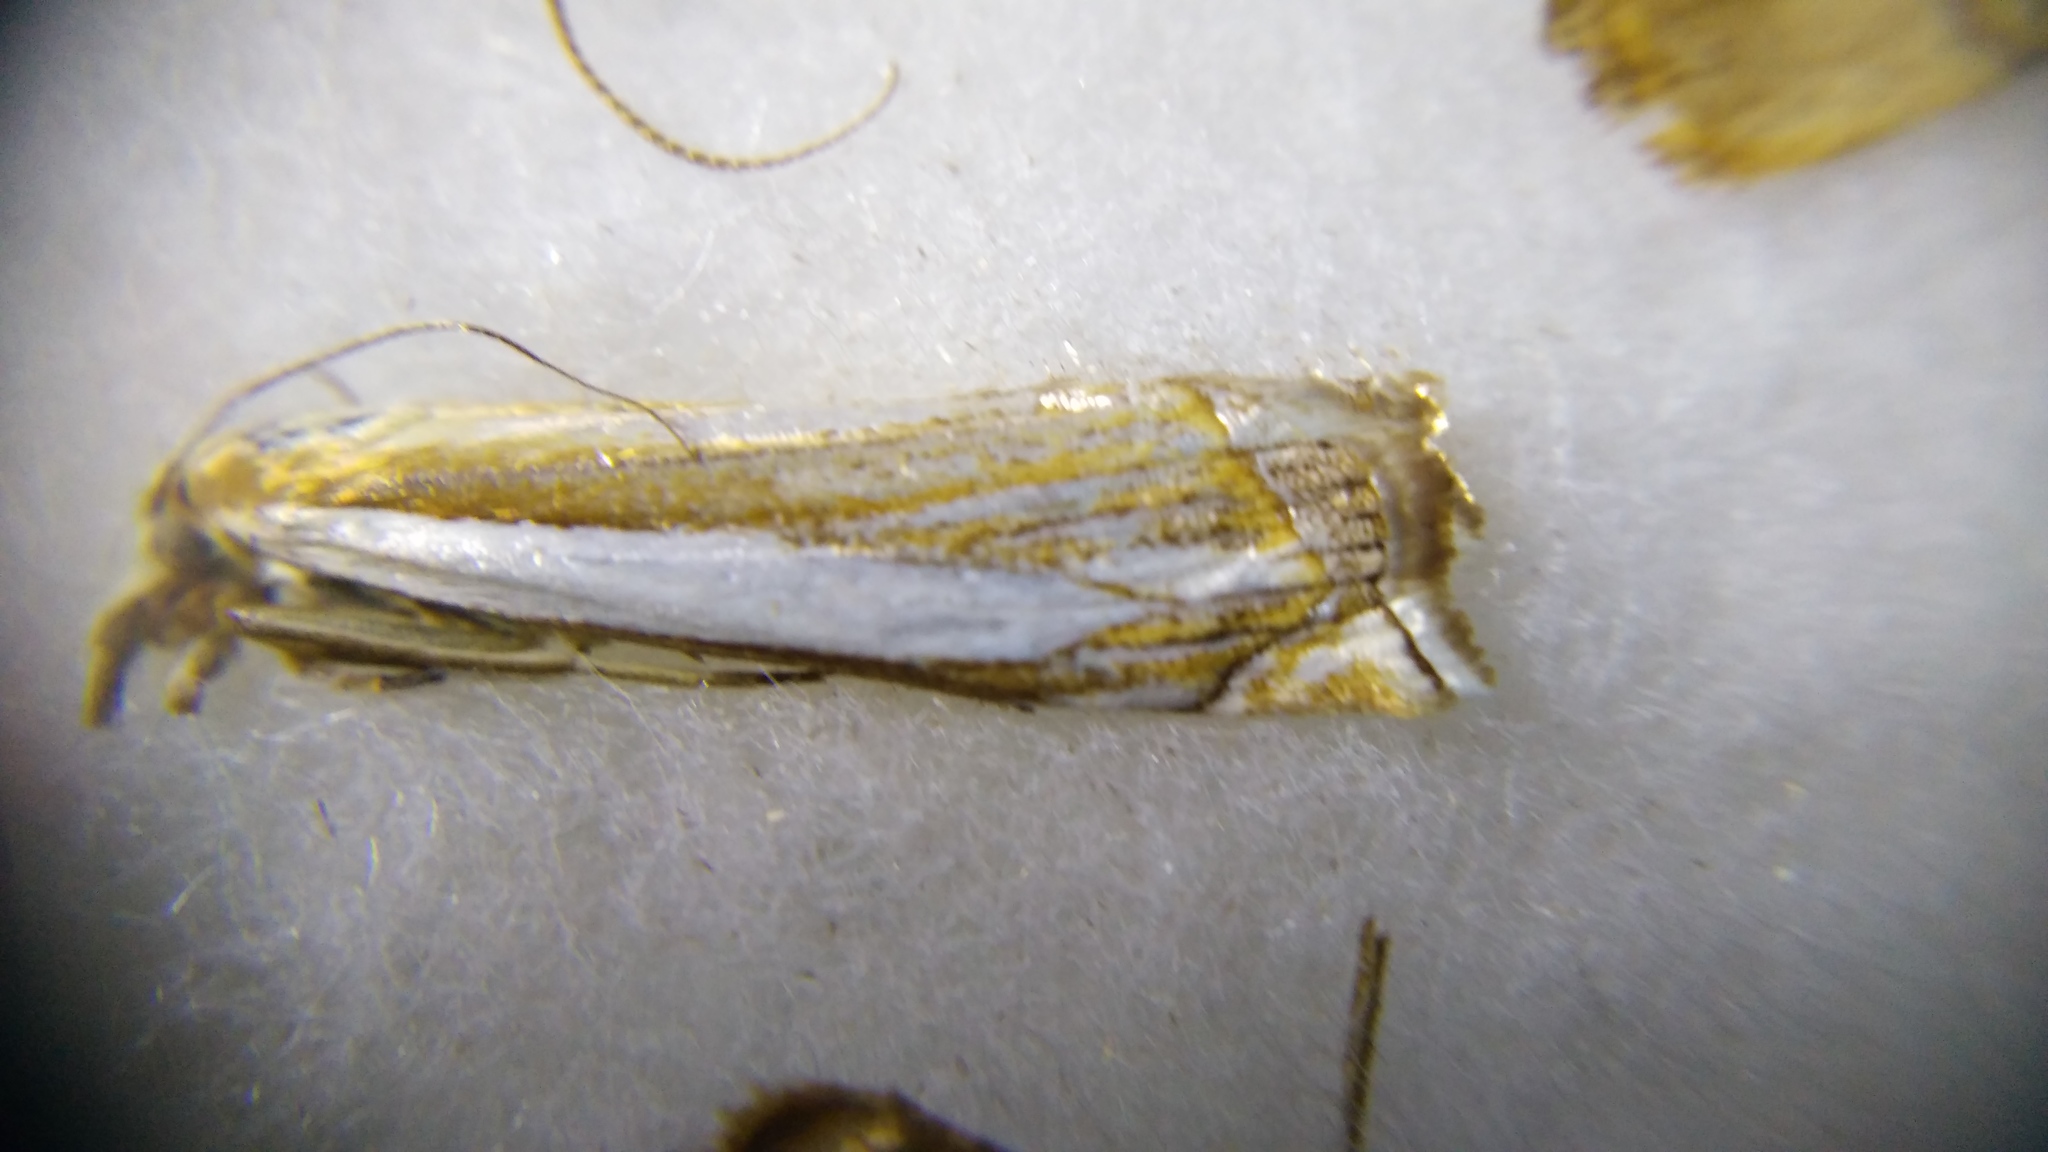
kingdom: Animalia
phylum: Arthropoda
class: Insecta
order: Lepidoptera
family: Crambidae
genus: Crambus
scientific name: Crambus pascuella
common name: Inlaid grass-veneer
